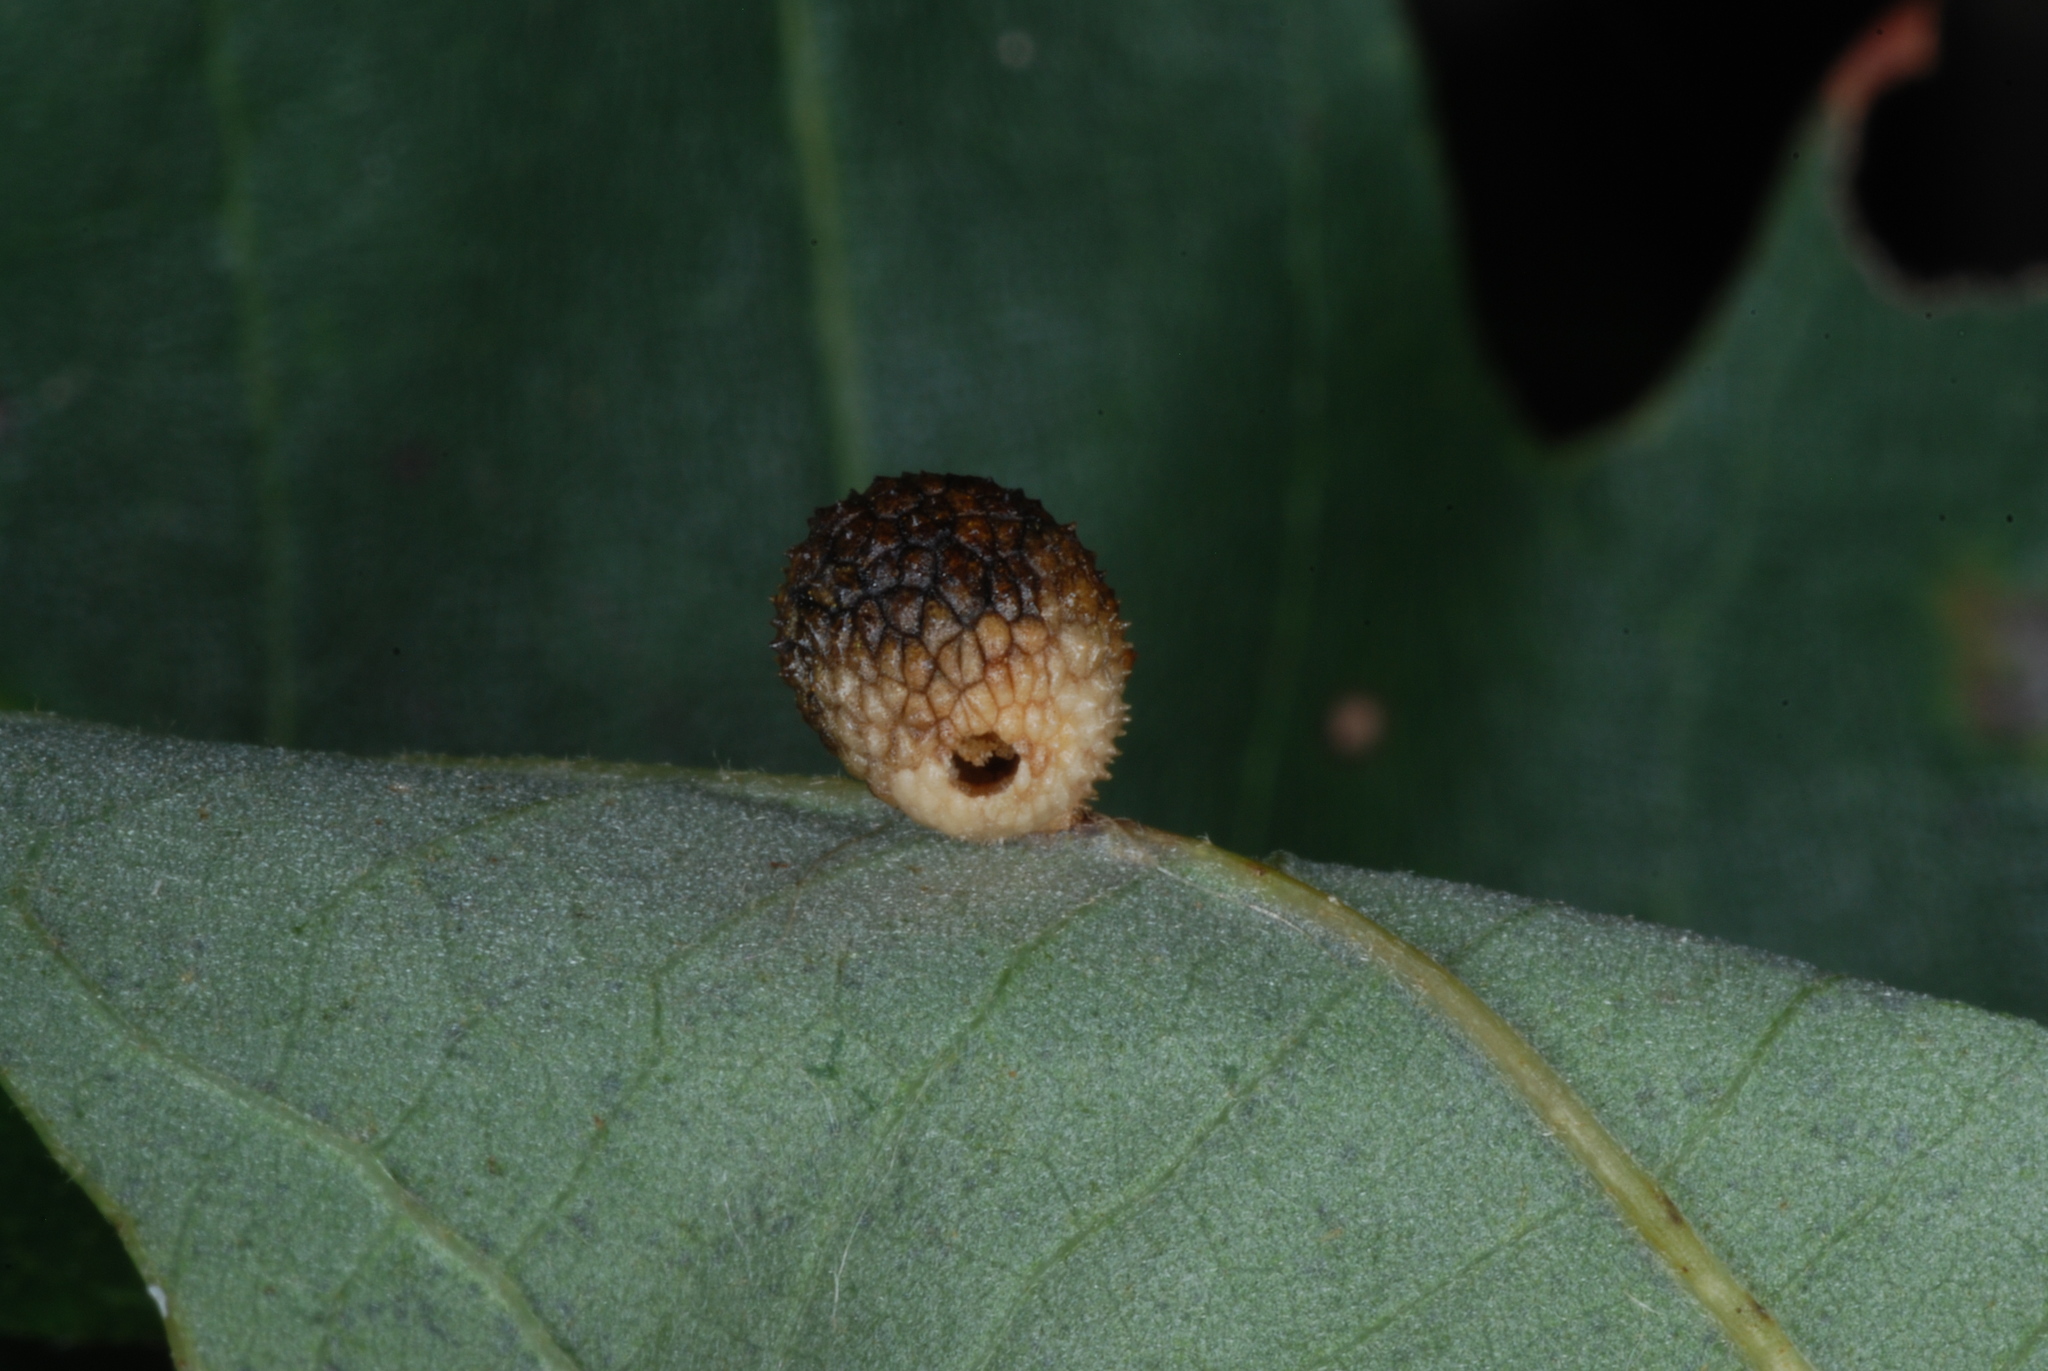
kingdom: Animalia
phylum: Arthropoda
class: Insecta
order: Hymenoptera
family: Cynipidae
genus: Acraspis
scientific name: Acraspis quercushirta
